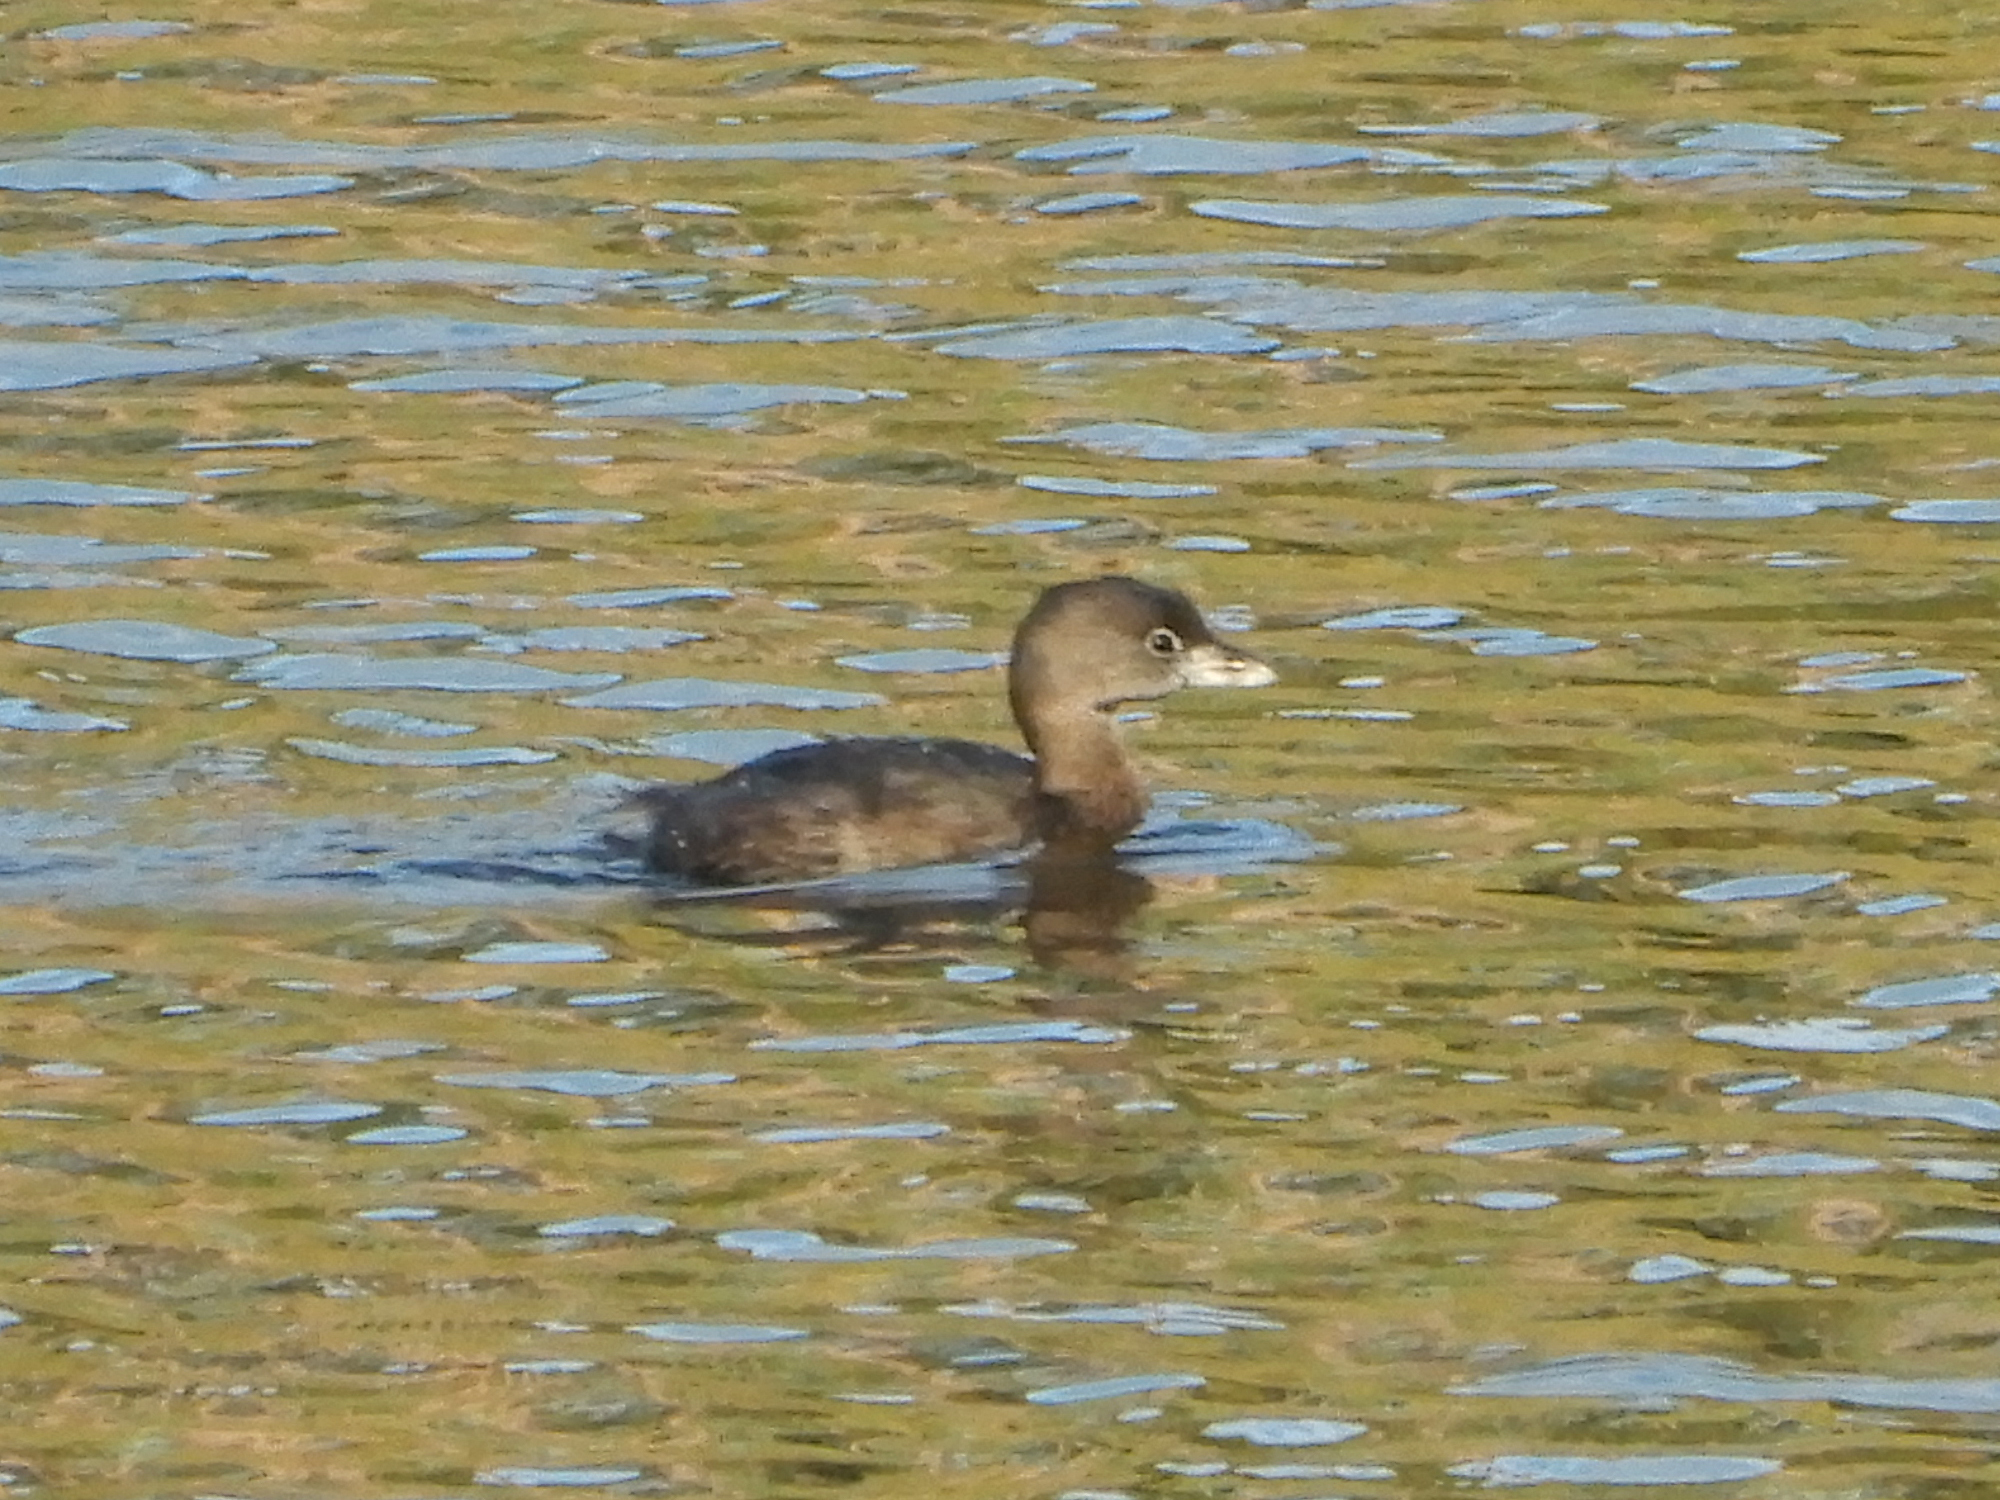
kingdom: Animalia
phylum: Chordata
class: Aves
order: Podicipediformes
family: Podicipedidae
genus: Podilymbus
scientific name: Podilymbus podiceps
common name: Pied-billed grebe
